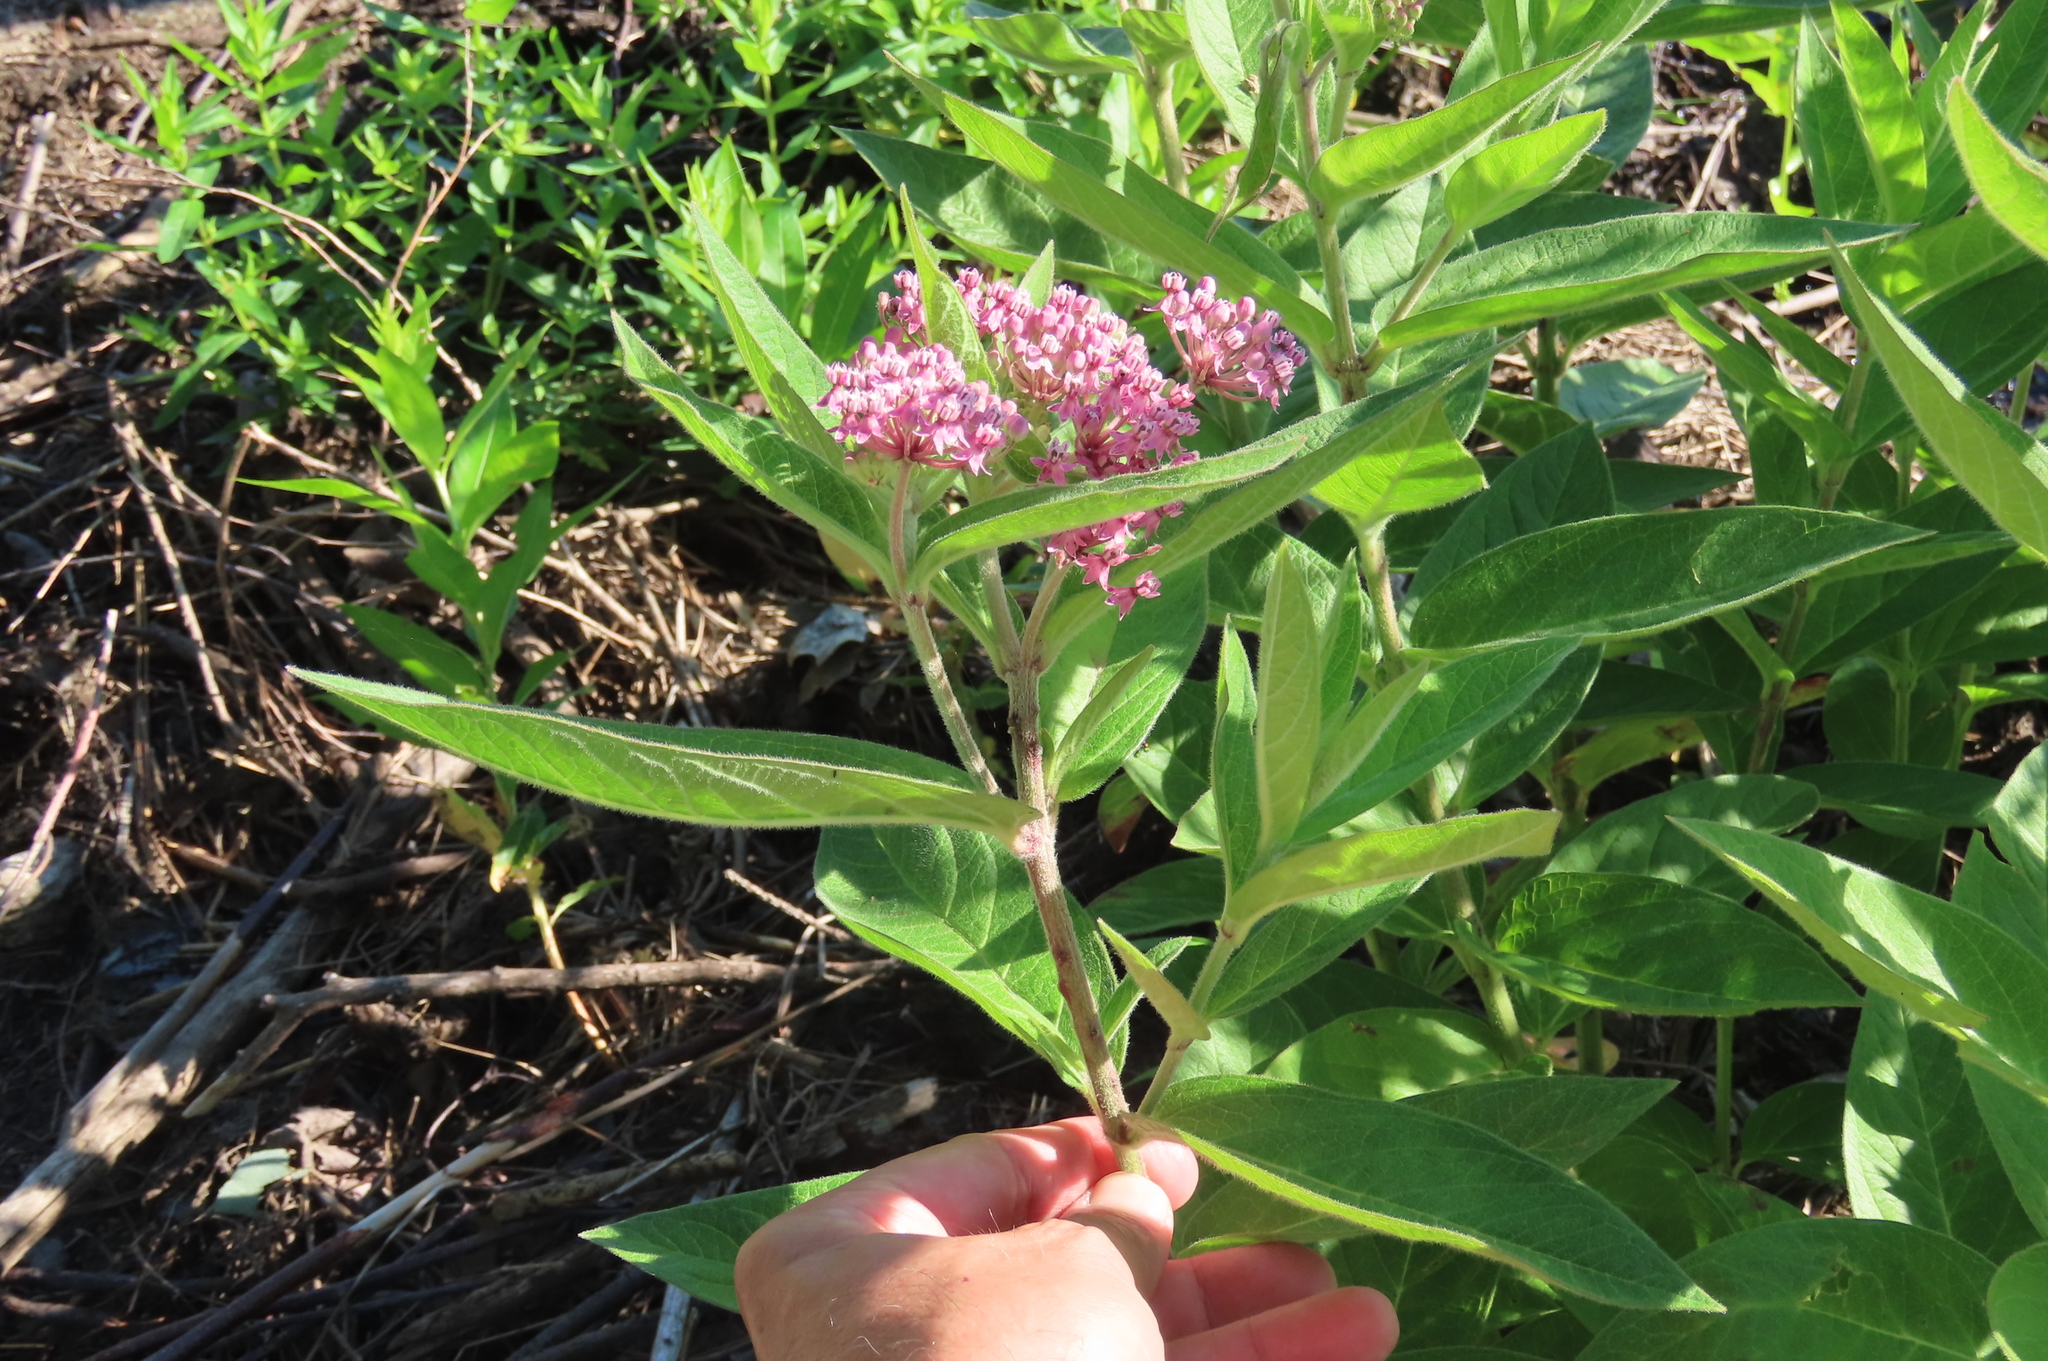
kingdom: Plantae
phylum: Tracheophyta
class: Magnoliopsida
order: Gentianales
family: Apocynaceae
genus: Asclepias
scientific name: Asclepias incarnata
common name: Swamp milkweed
